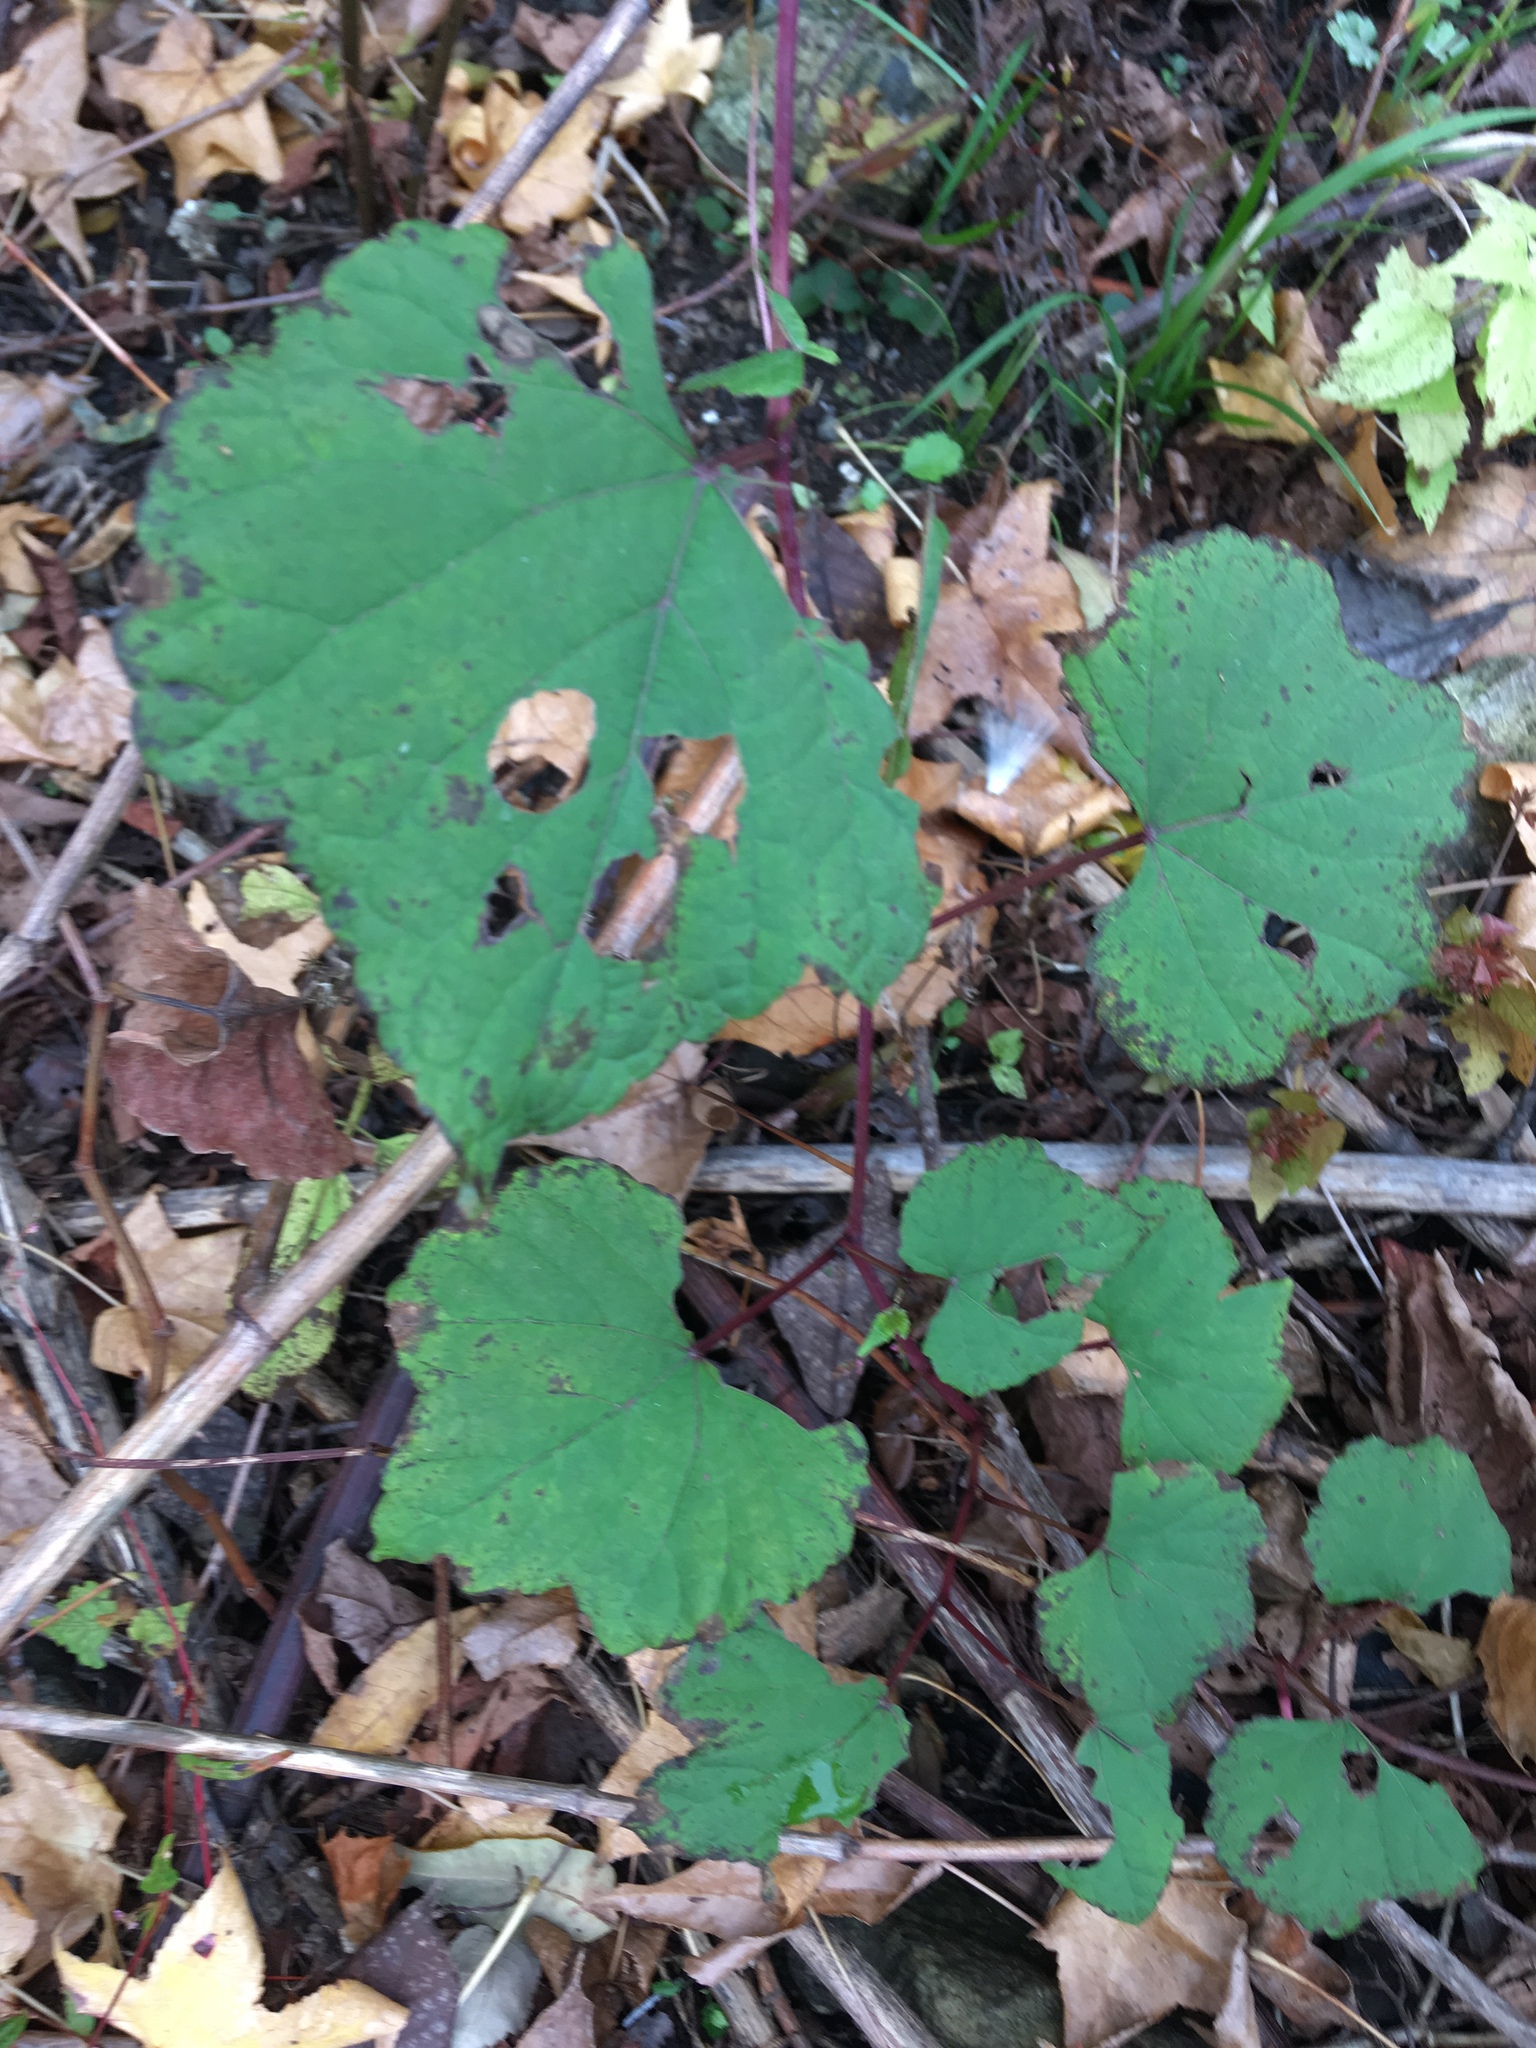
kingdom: Plantae
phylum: Tracheophyta
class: Magnoliopsida
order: Vitales
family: Vitaceae
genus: Ampelopsis
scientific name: Ampelopsis glandulosa
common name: Amur peppervine
